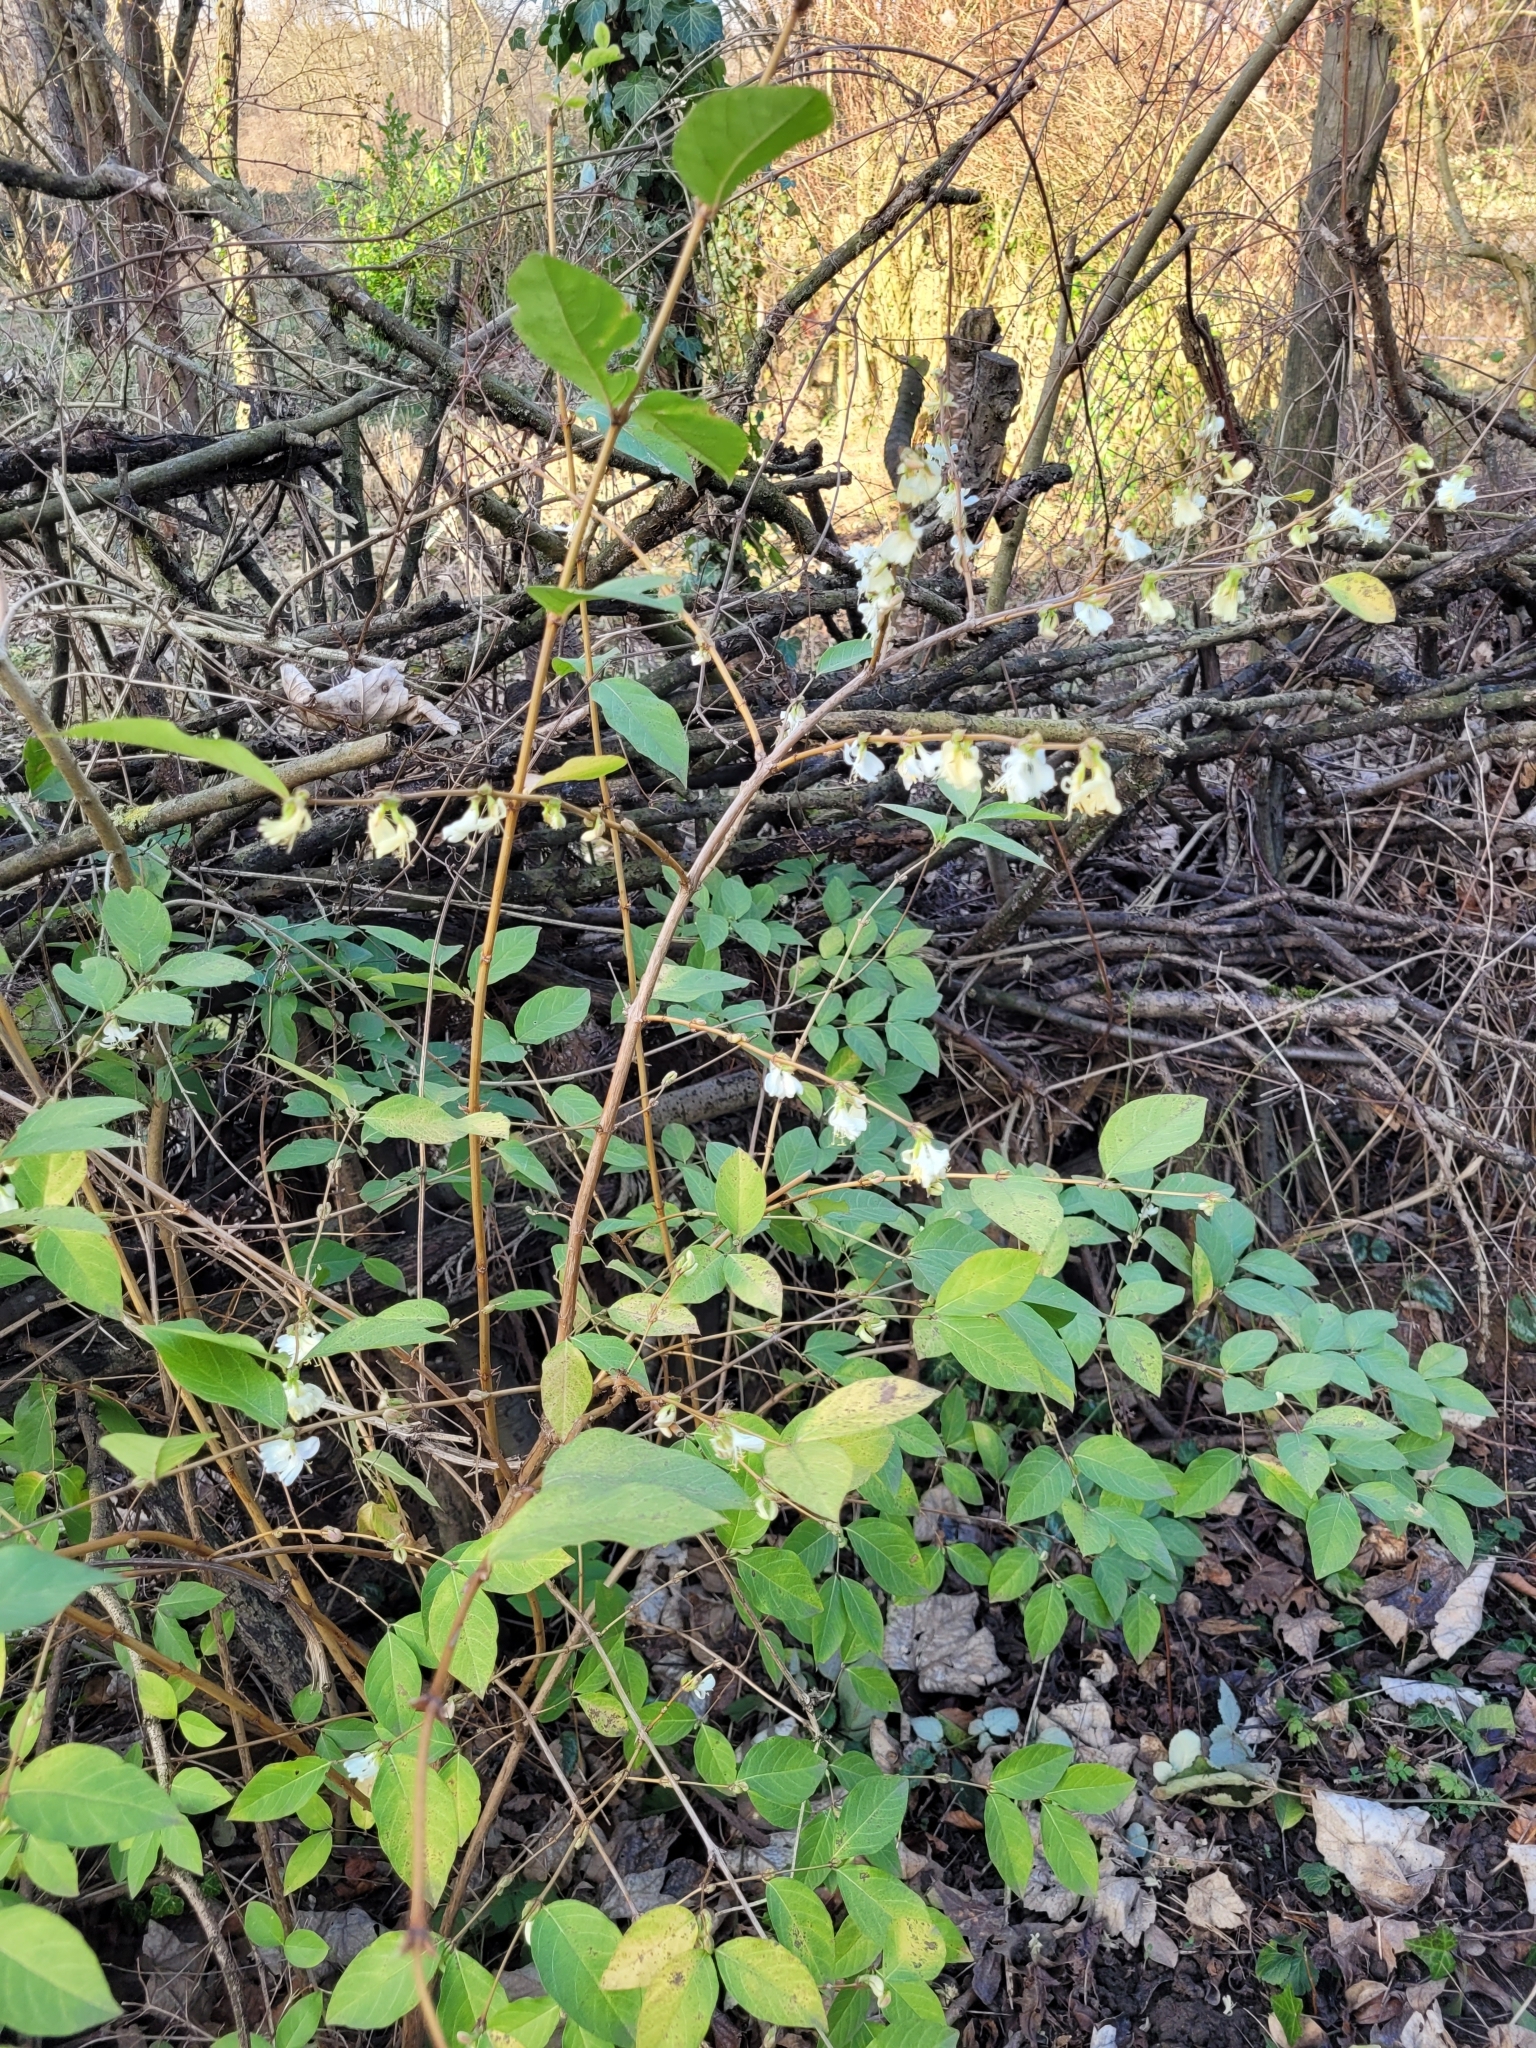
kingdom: Plantae
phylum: Tracheophyta
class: Magnoliopsida
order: Dipsacales
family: Caprifoliaceae
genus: Lonicera
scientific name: Lonicera fragrantissima
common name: Fragrant honeysuckle
